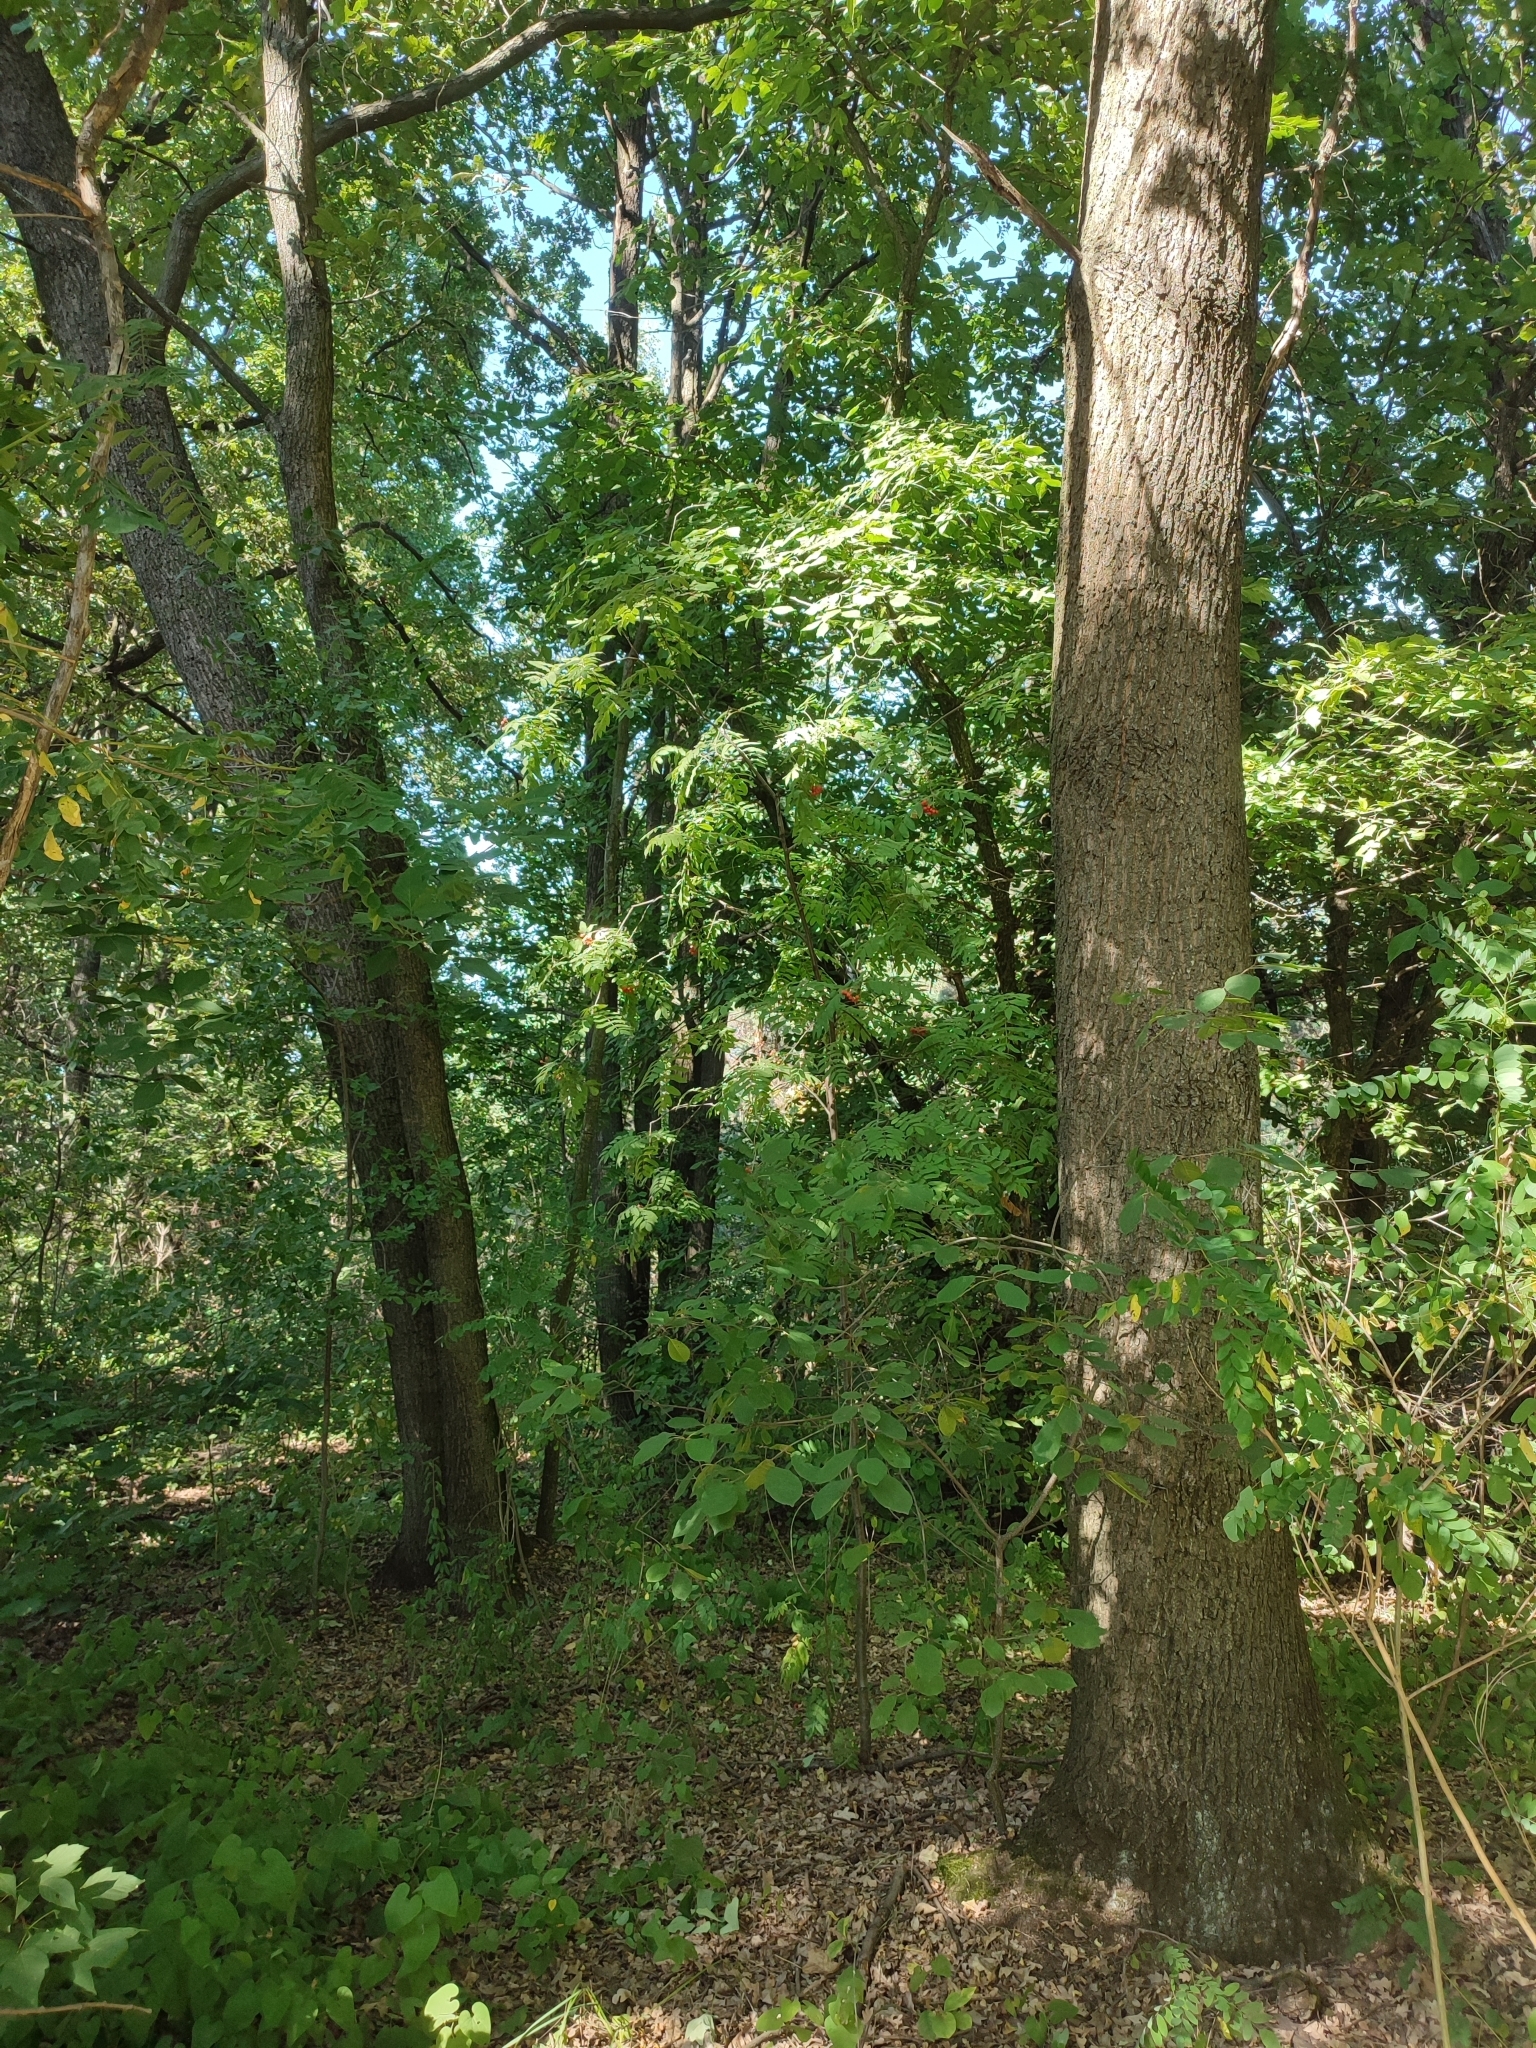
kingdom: Plantae
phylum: Tracheophyta
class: Magnoliopsida
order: Fagales
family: Fagaceae
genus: Quercus
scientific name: Quercus robur
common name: Pedunculate oak
